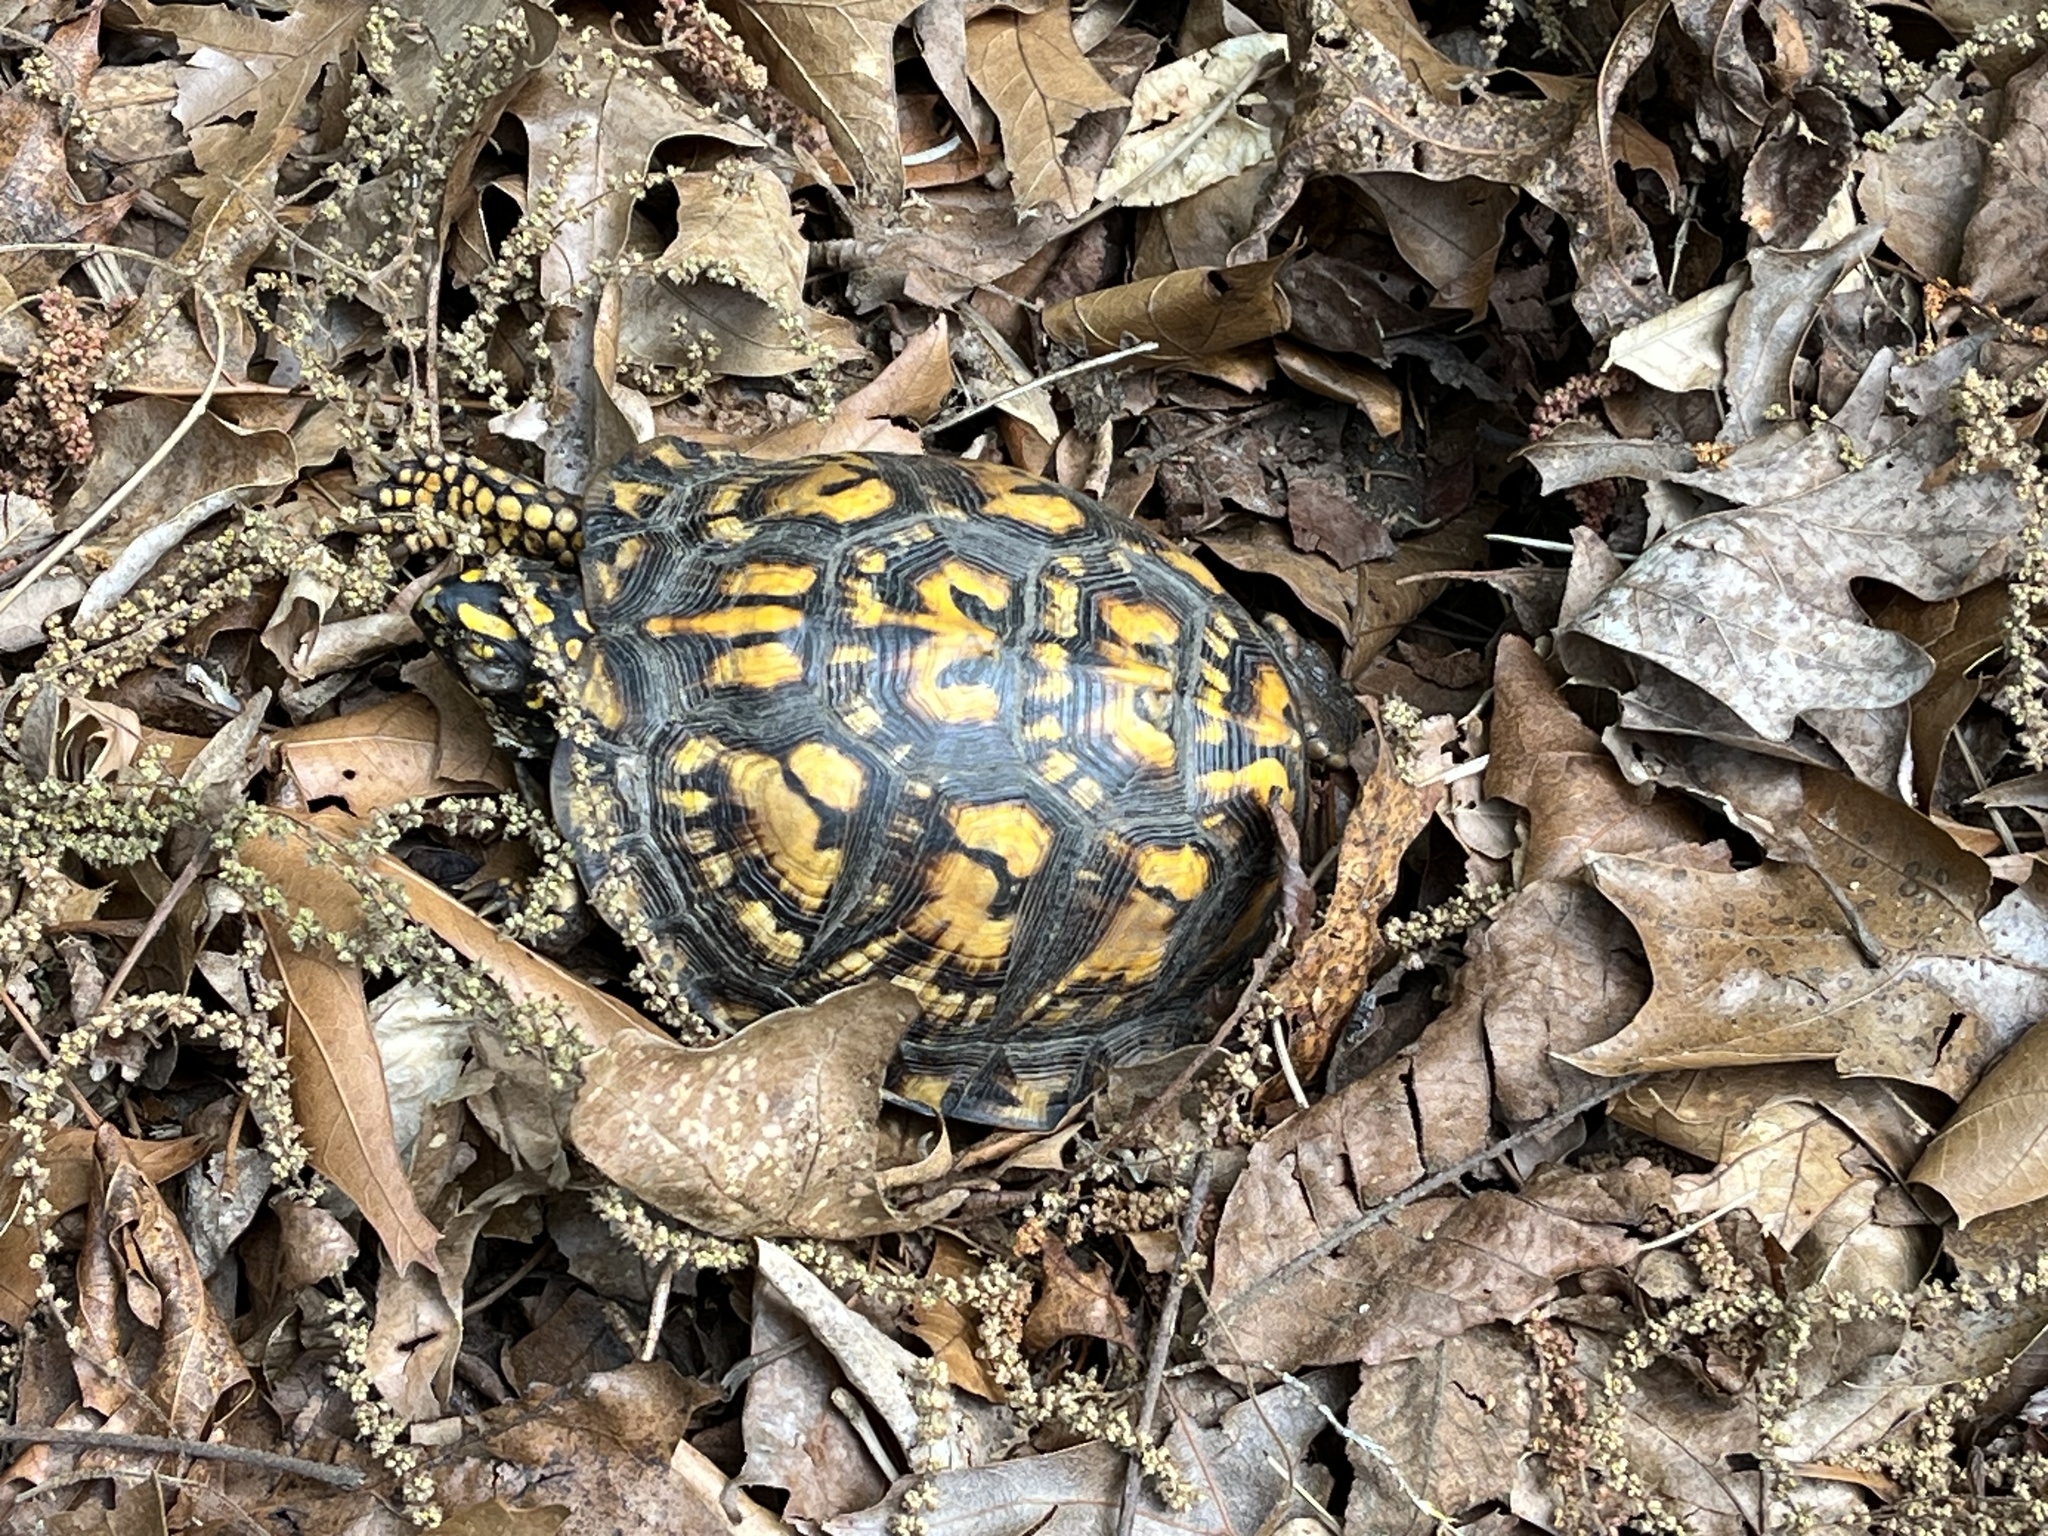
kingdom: Animalia
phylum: Chordata
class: Testudines
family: Emydidae
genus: Terrapene
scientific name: Terrapene carolina
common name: Common box turtle
